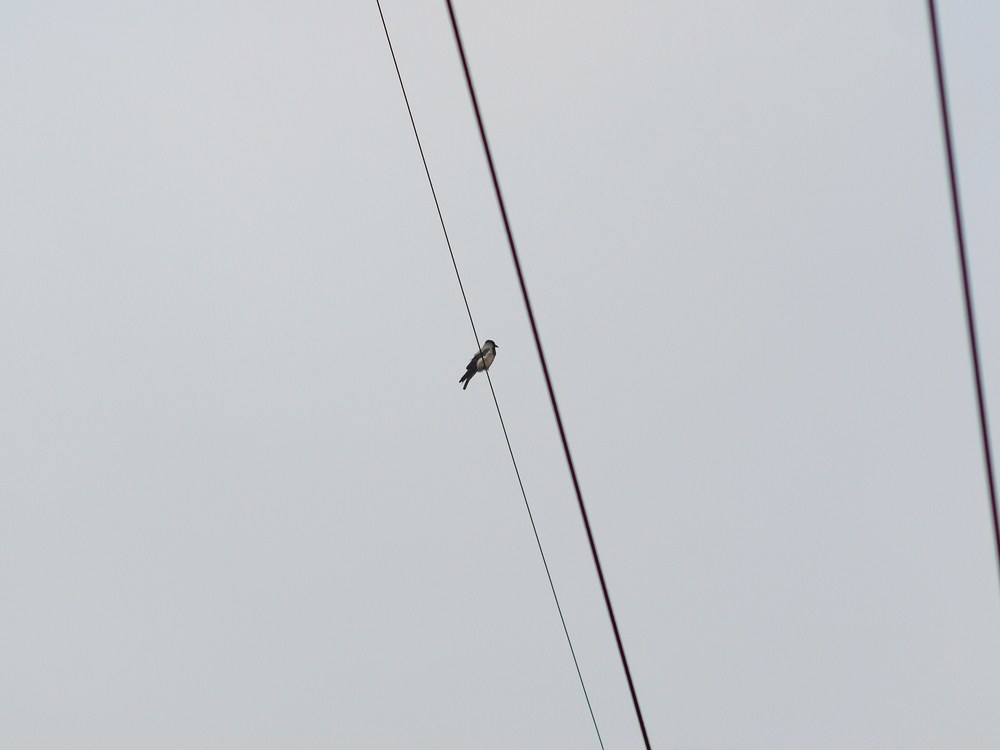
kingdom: Animalia
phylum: Chordata
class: Aves
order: Passeriformes
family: Corvidae
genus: Corvus
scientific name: Corvus cornix
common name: Hooded crow
